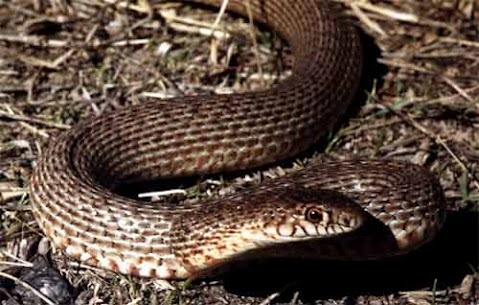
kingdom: Animalia
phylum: Chordata
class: Squamata
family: Colubridae
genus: Dolichophis
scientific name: Dolichophis schmidti
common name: Red-bellied racer
